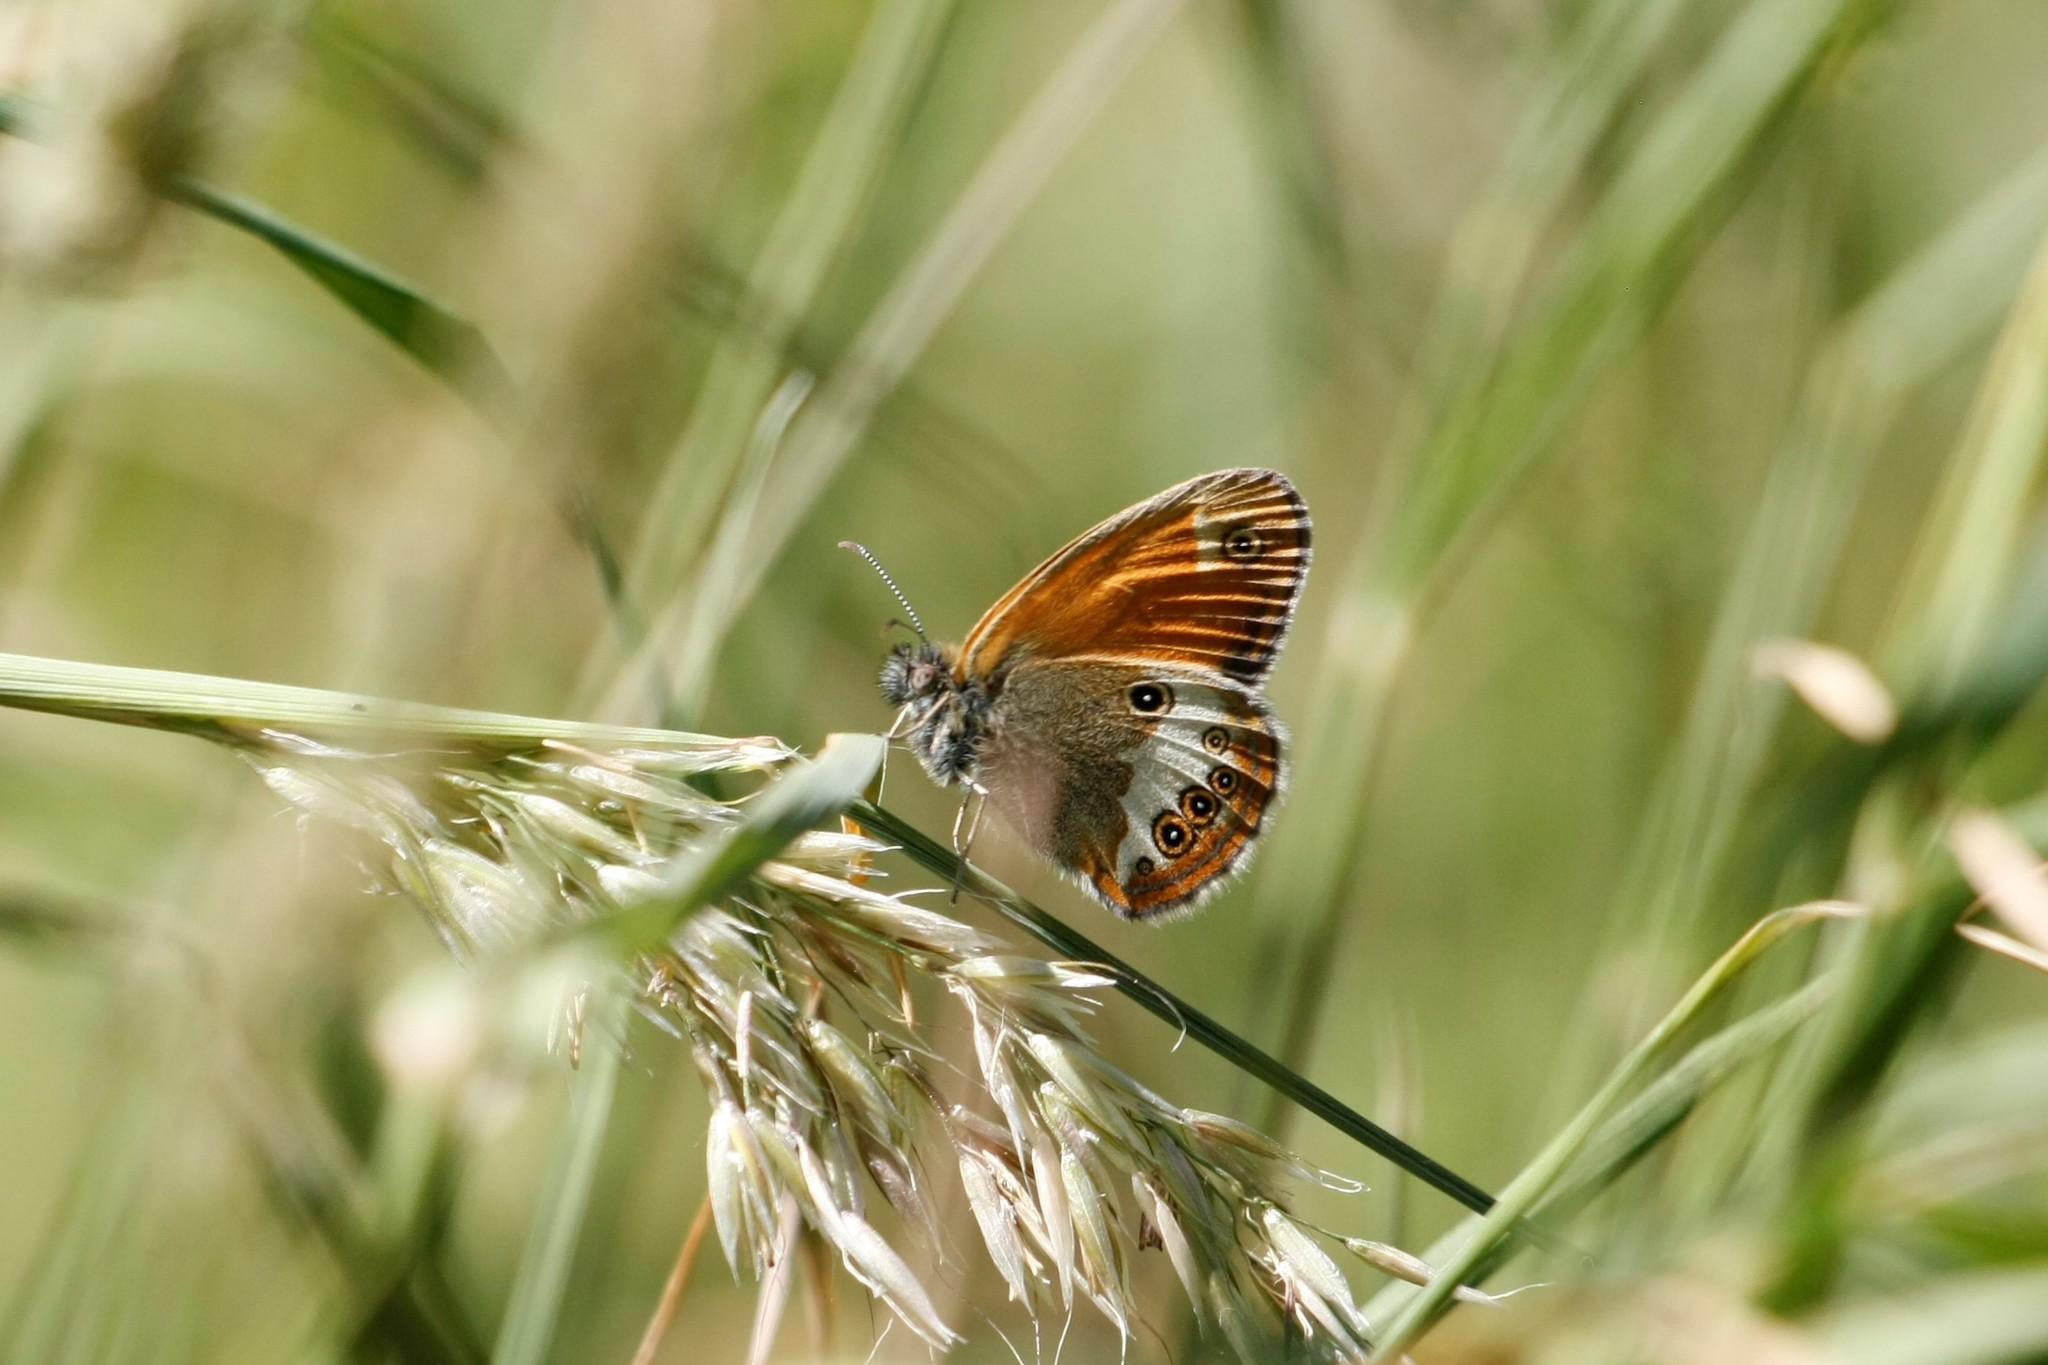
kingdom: Animalia
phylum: Arthropoda
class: Insecta
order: Lepidoptera
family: Nymphalidae
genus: Coenonympha
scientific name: Coenonympha arcania
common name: Pearly heath
